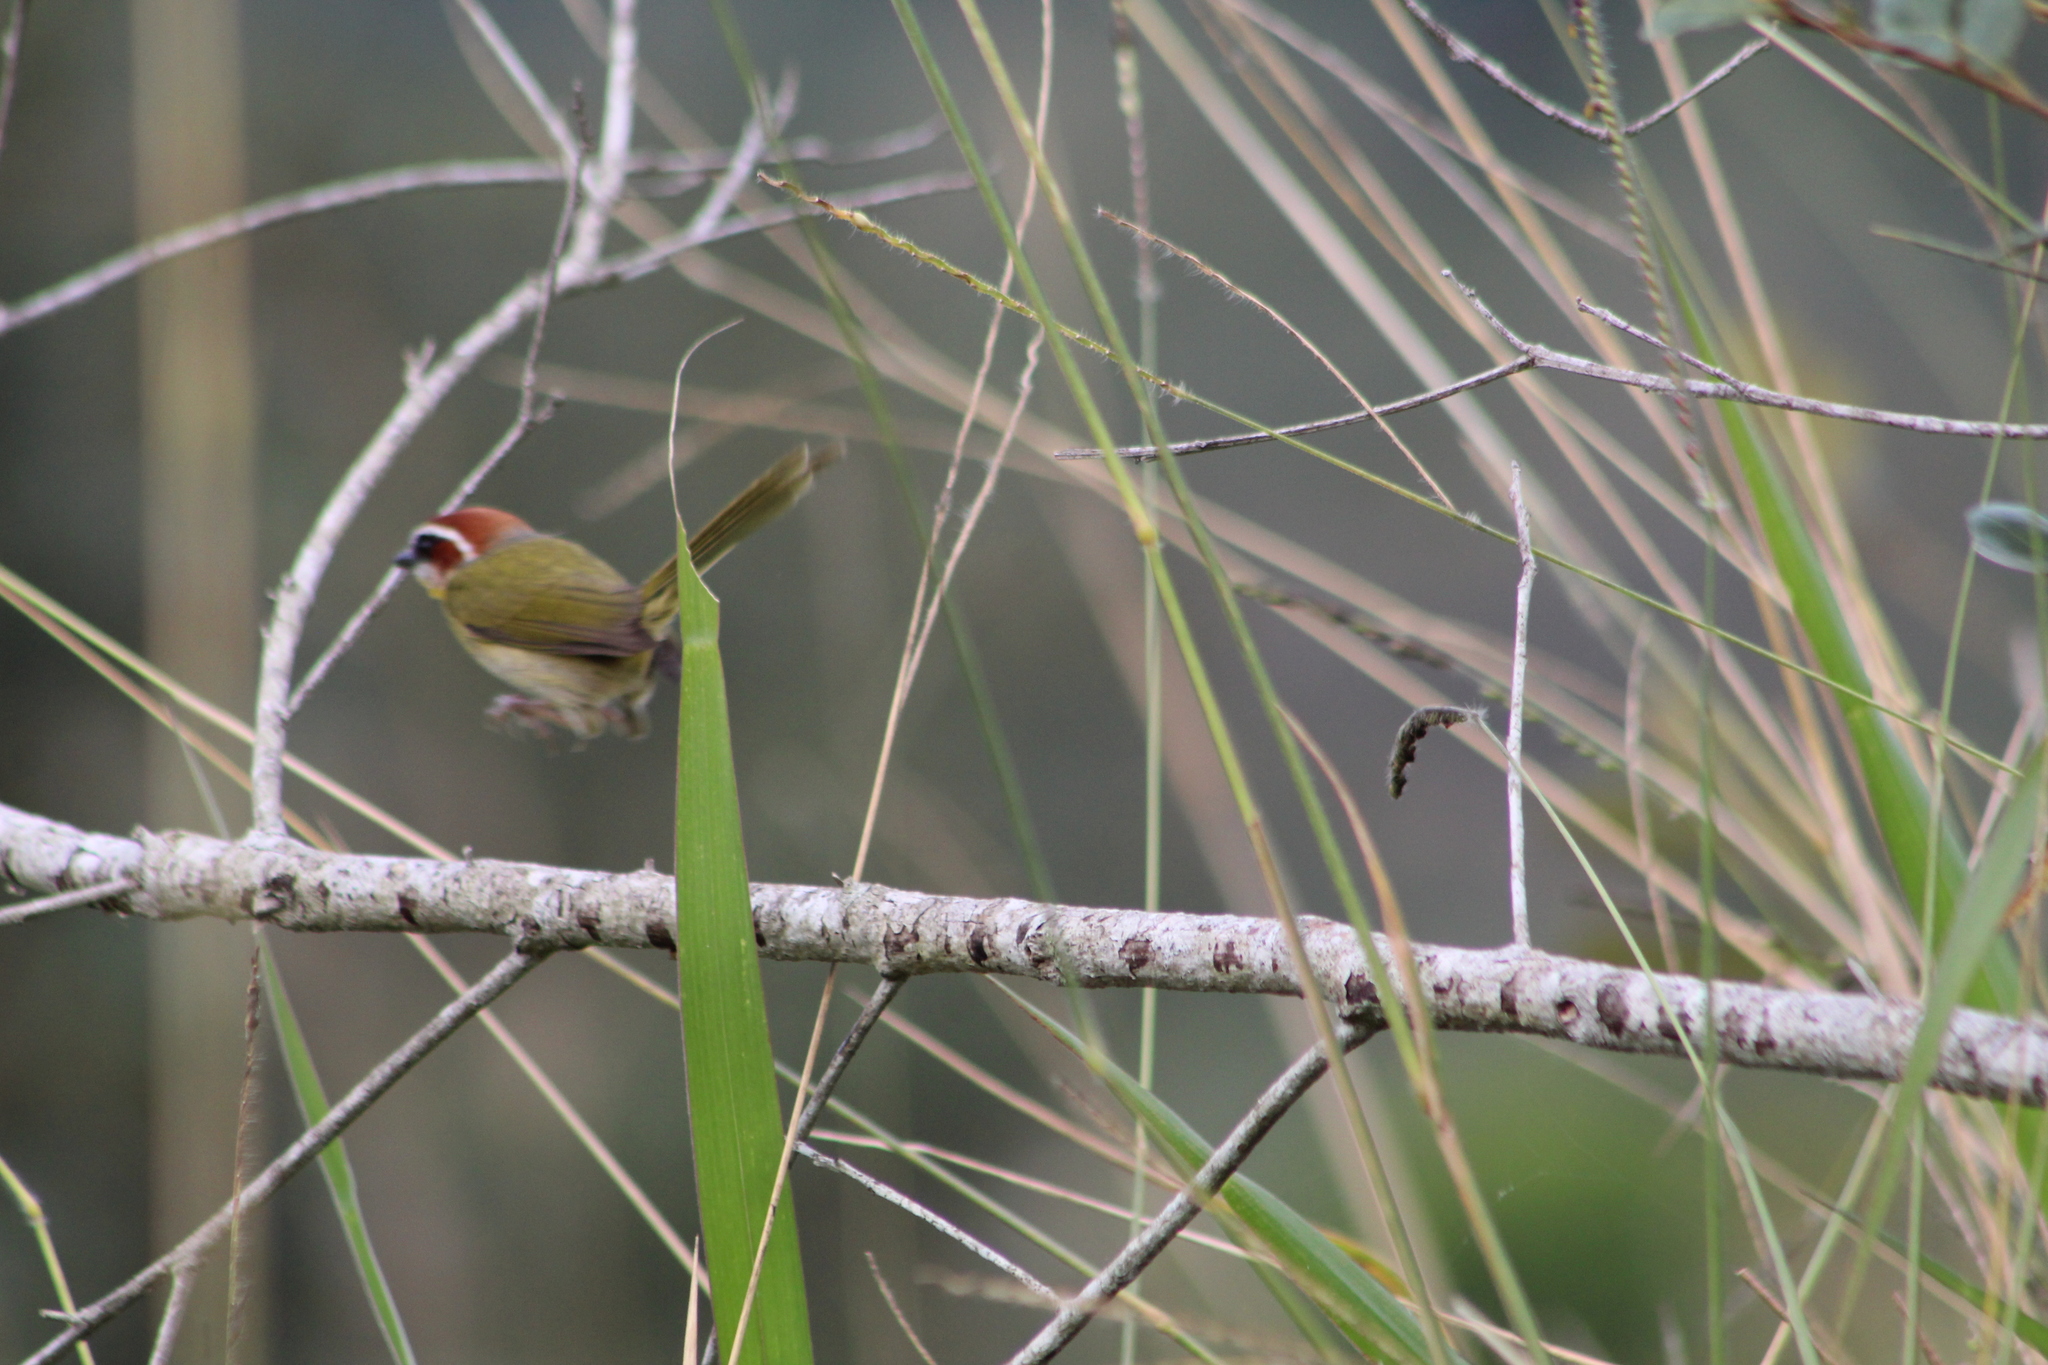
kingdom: Animalia
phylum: Chordata
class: Aves
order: Passeriformes
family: Parulidae
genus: Basileuterus
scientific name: Basileuterus rufifrons
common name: Rufous-capped warbler
